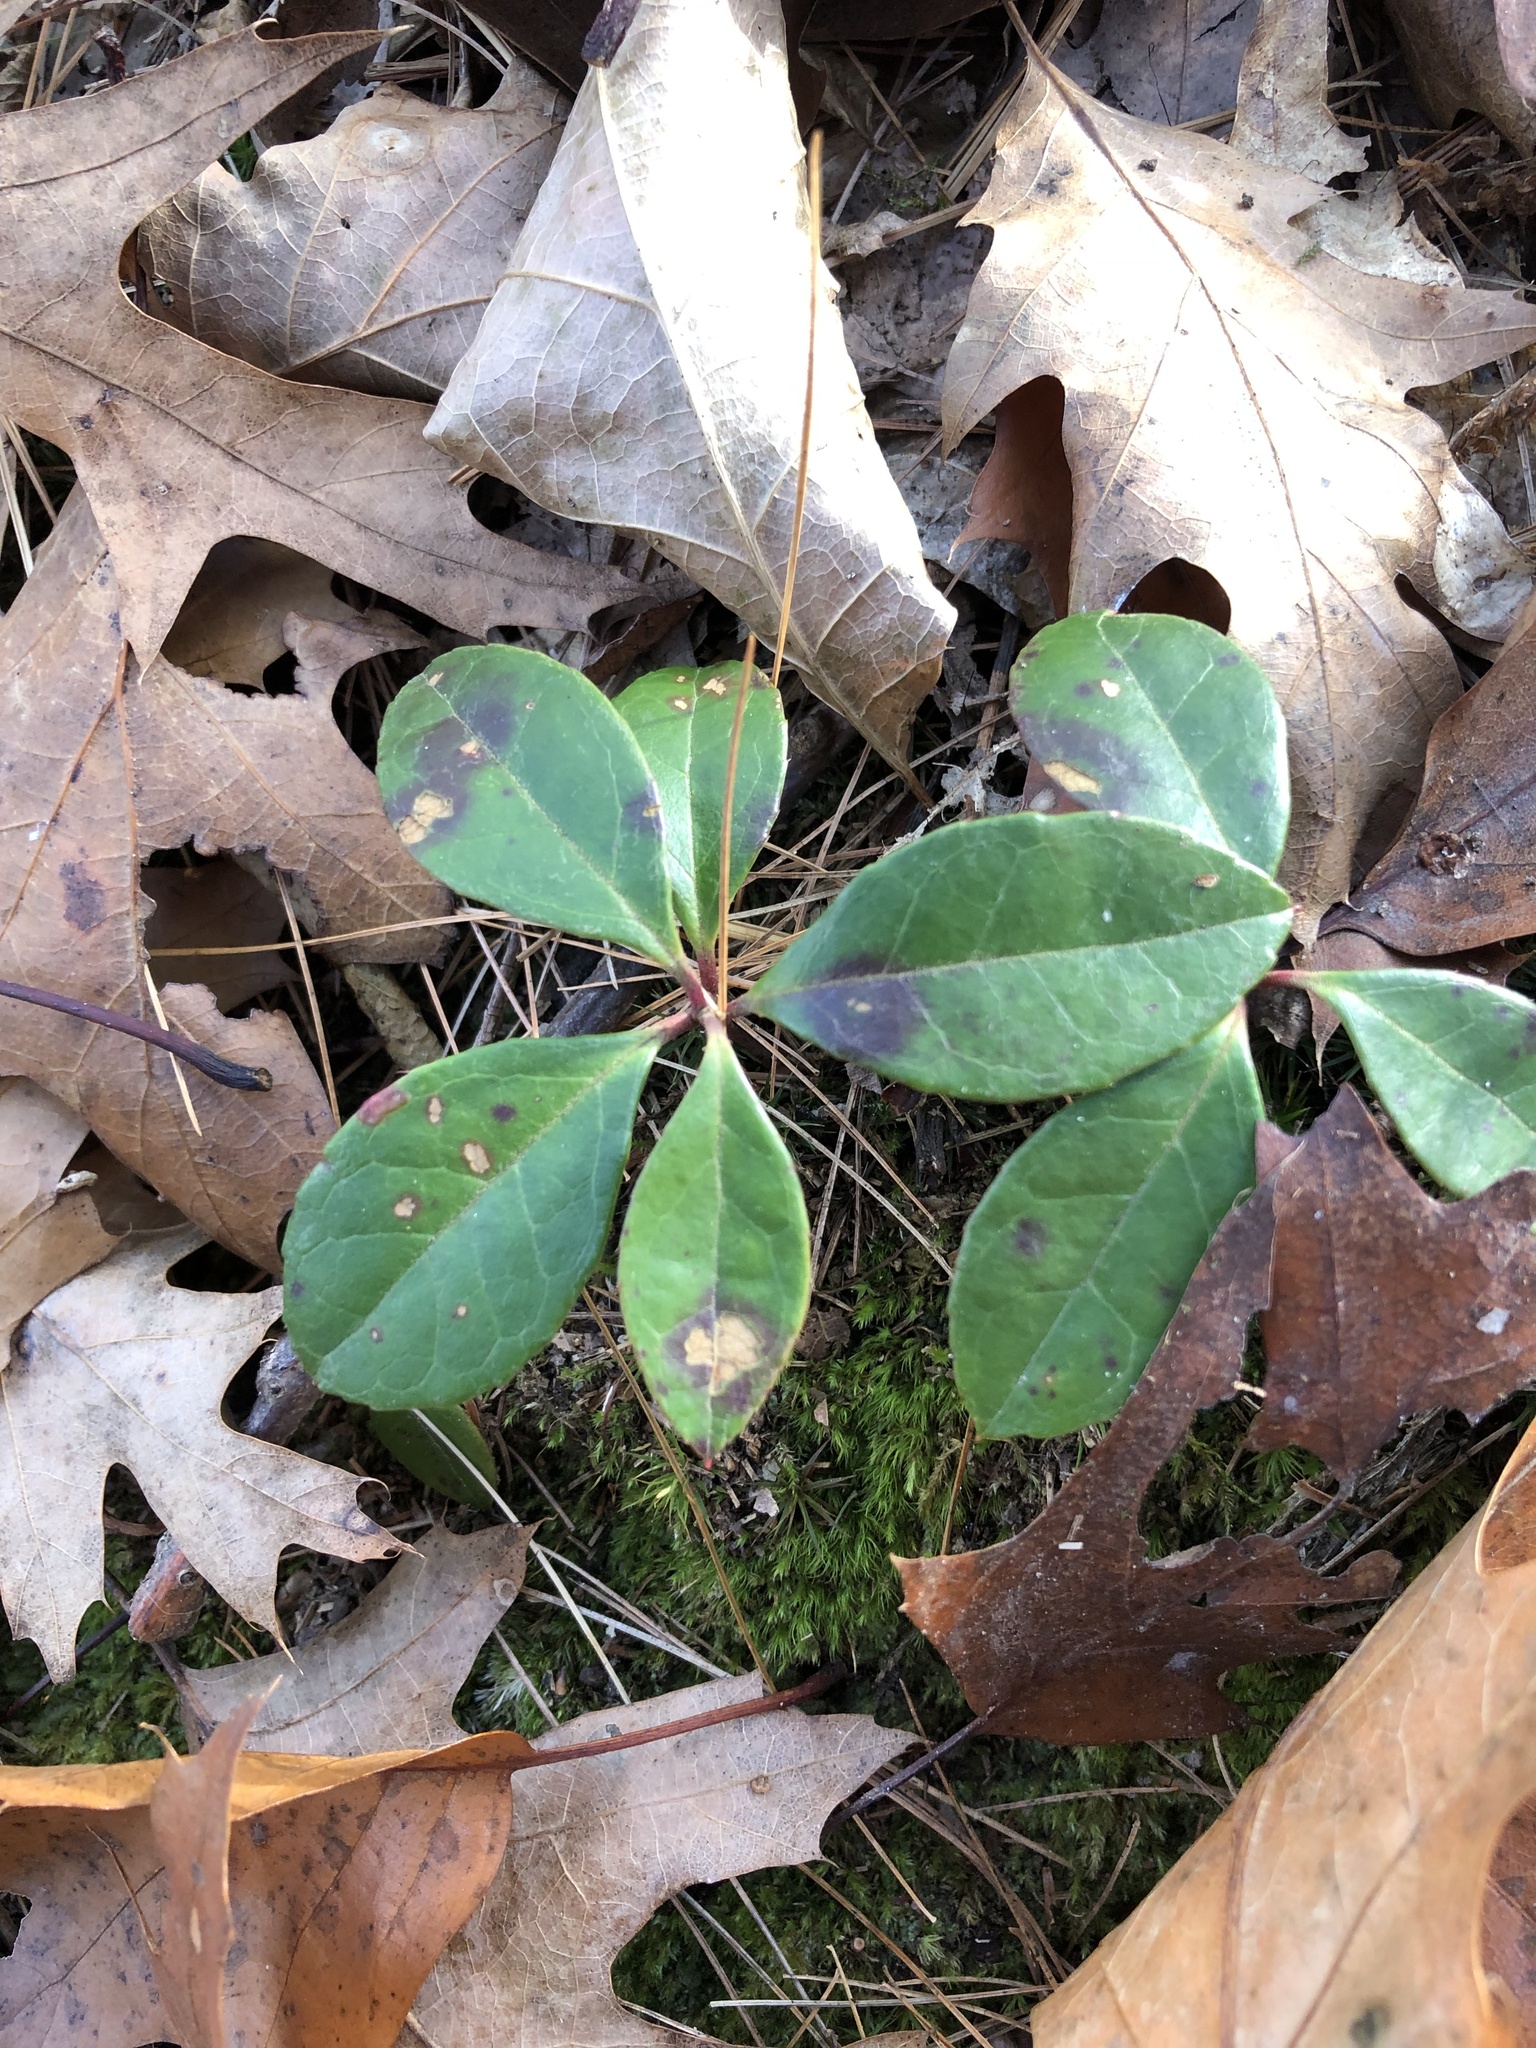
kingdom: Plantae
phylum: Tracheophyta
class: Magnoliopsida
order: Ericales
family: Ericaceae
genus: Gaultheria
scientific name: Gaultheria procumbens
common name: Checkerberry
